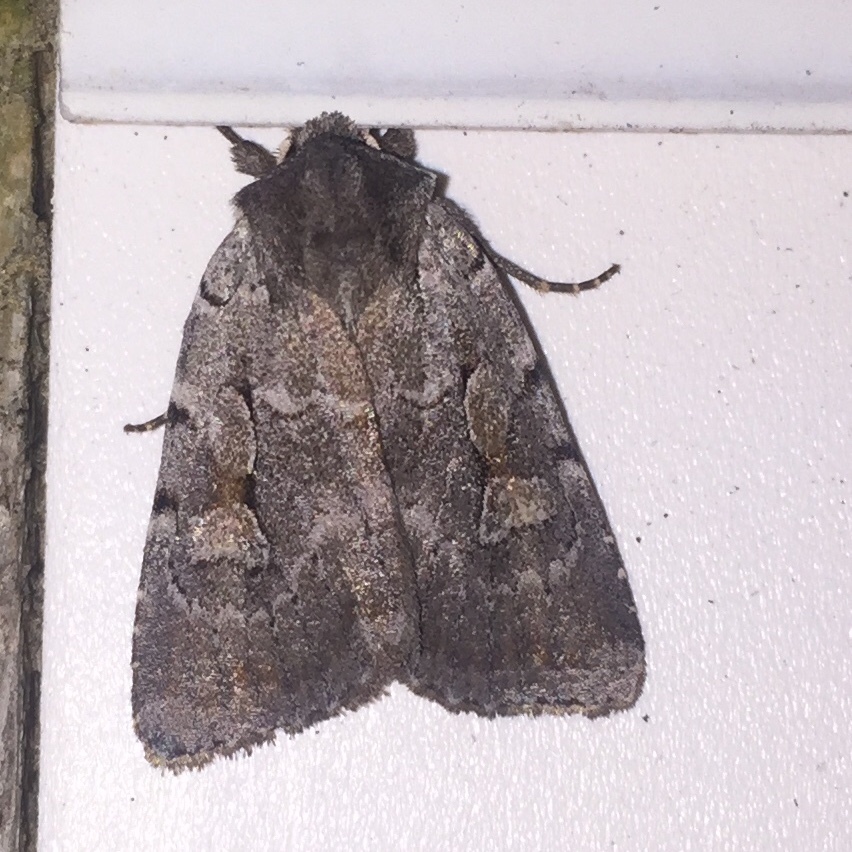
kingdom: Animalia
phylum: Arthropoda
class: Insecta
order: Lepidoptera
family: Noctuidae
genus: Xestia
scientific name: Xestia badicollis
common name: Northern variable dart
